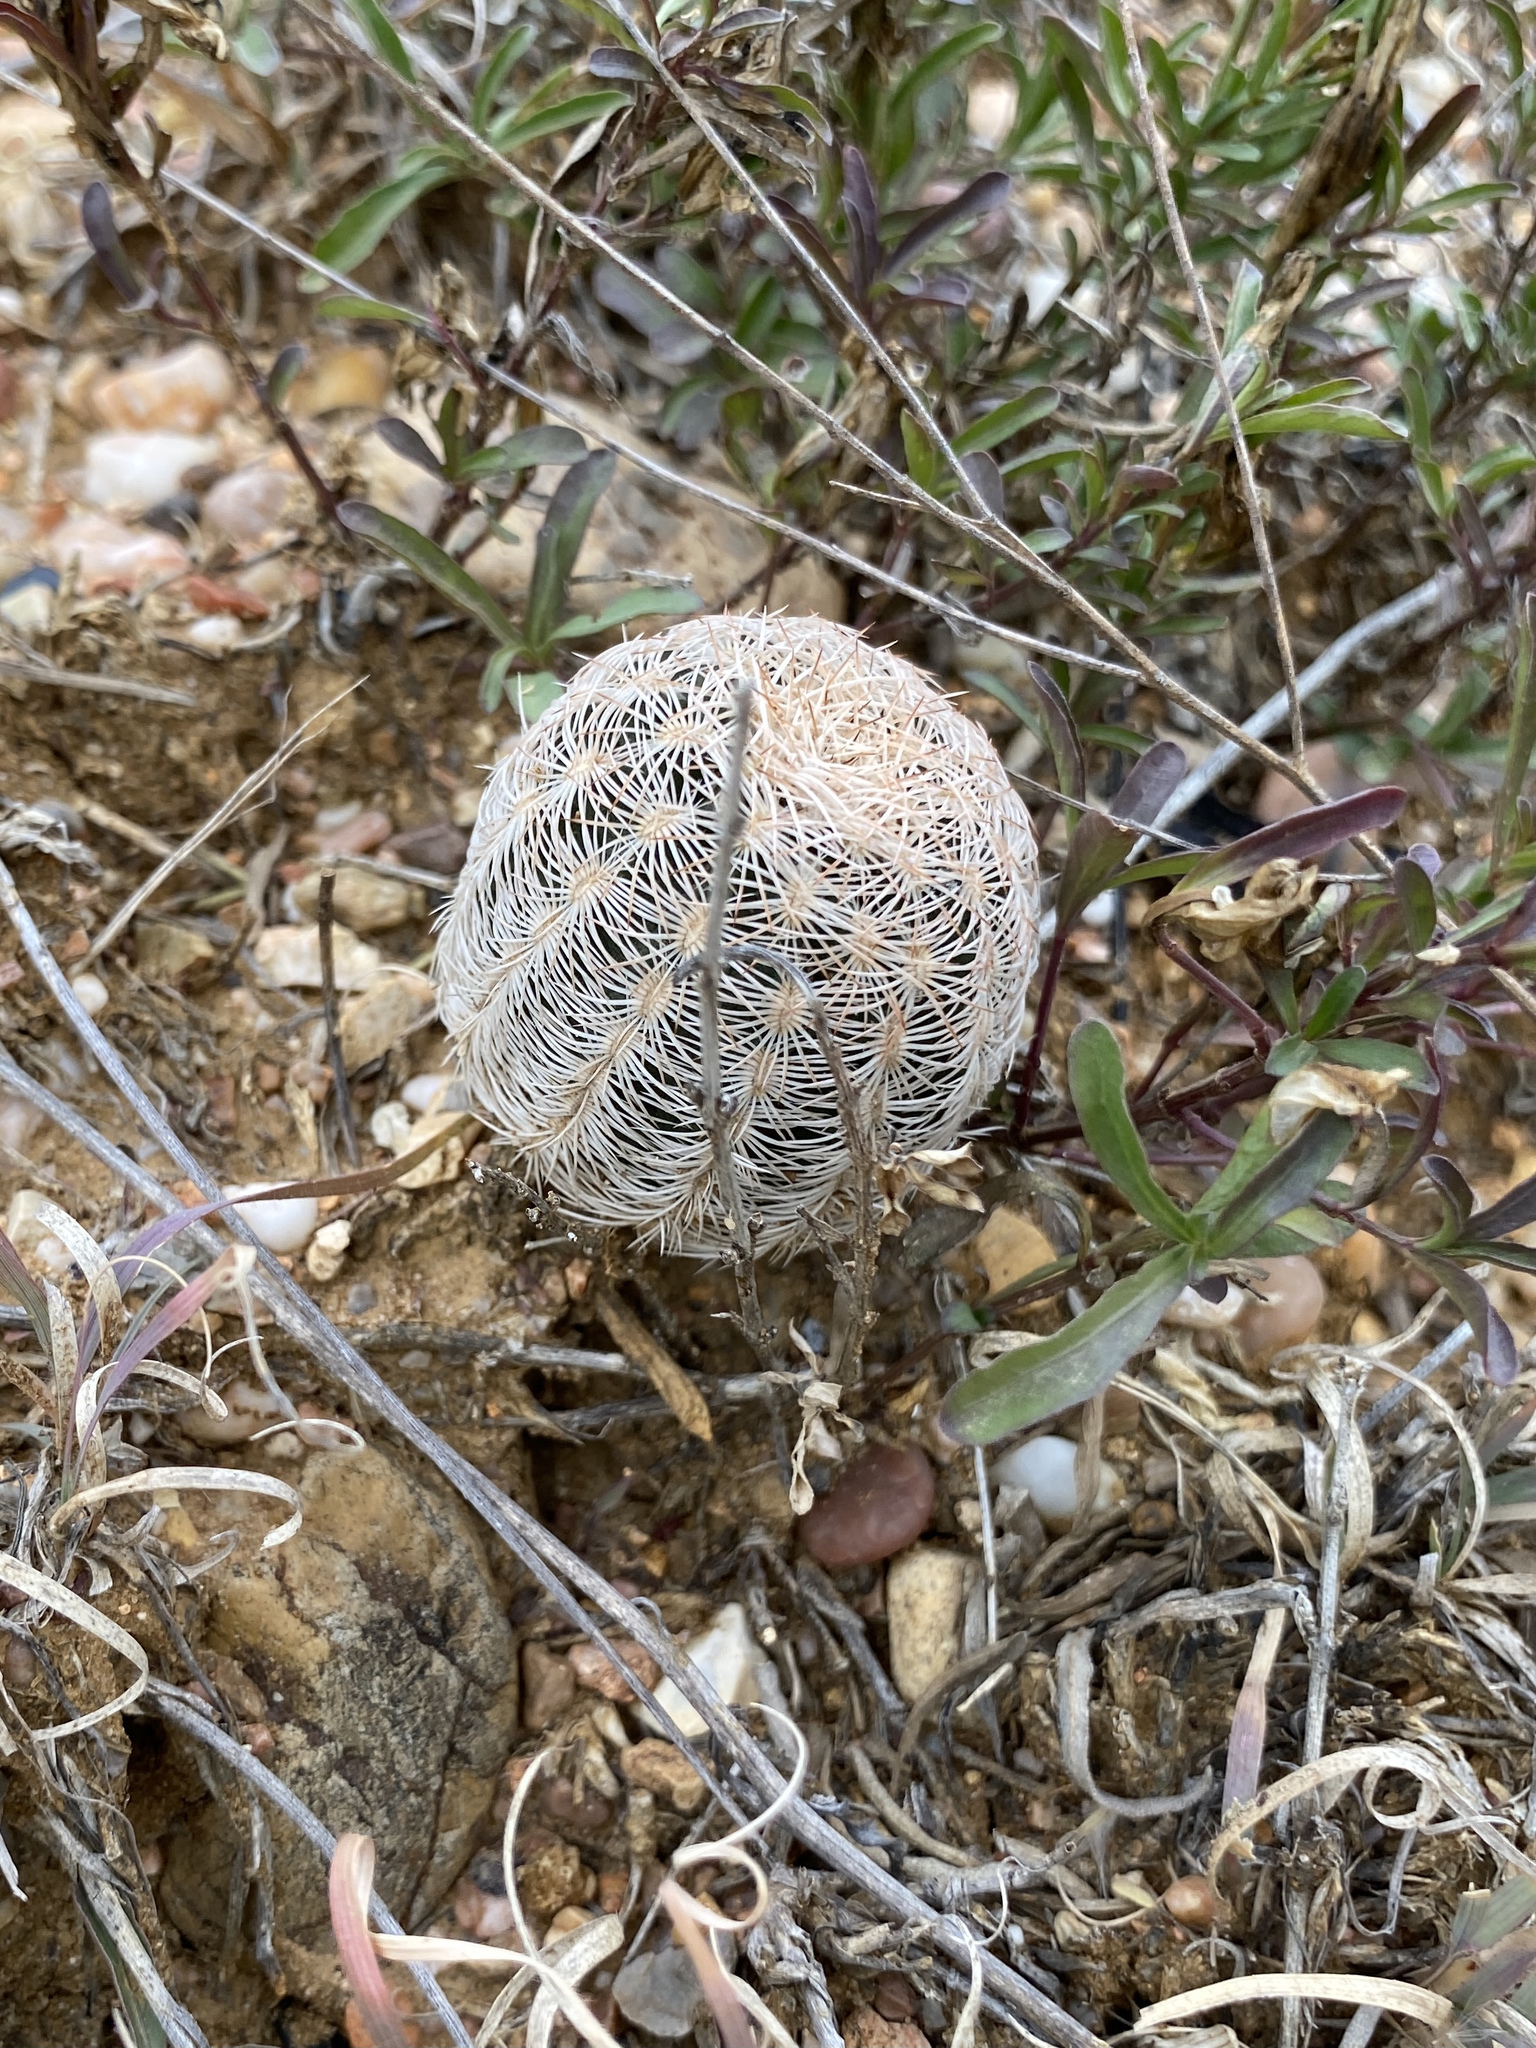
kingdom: Plantae
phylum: Tracheophyta
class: Magnoliopsida
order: Caryophyllales
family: Cactaceae
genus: Echinocereus
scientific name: Echinocereus reichenbachii
